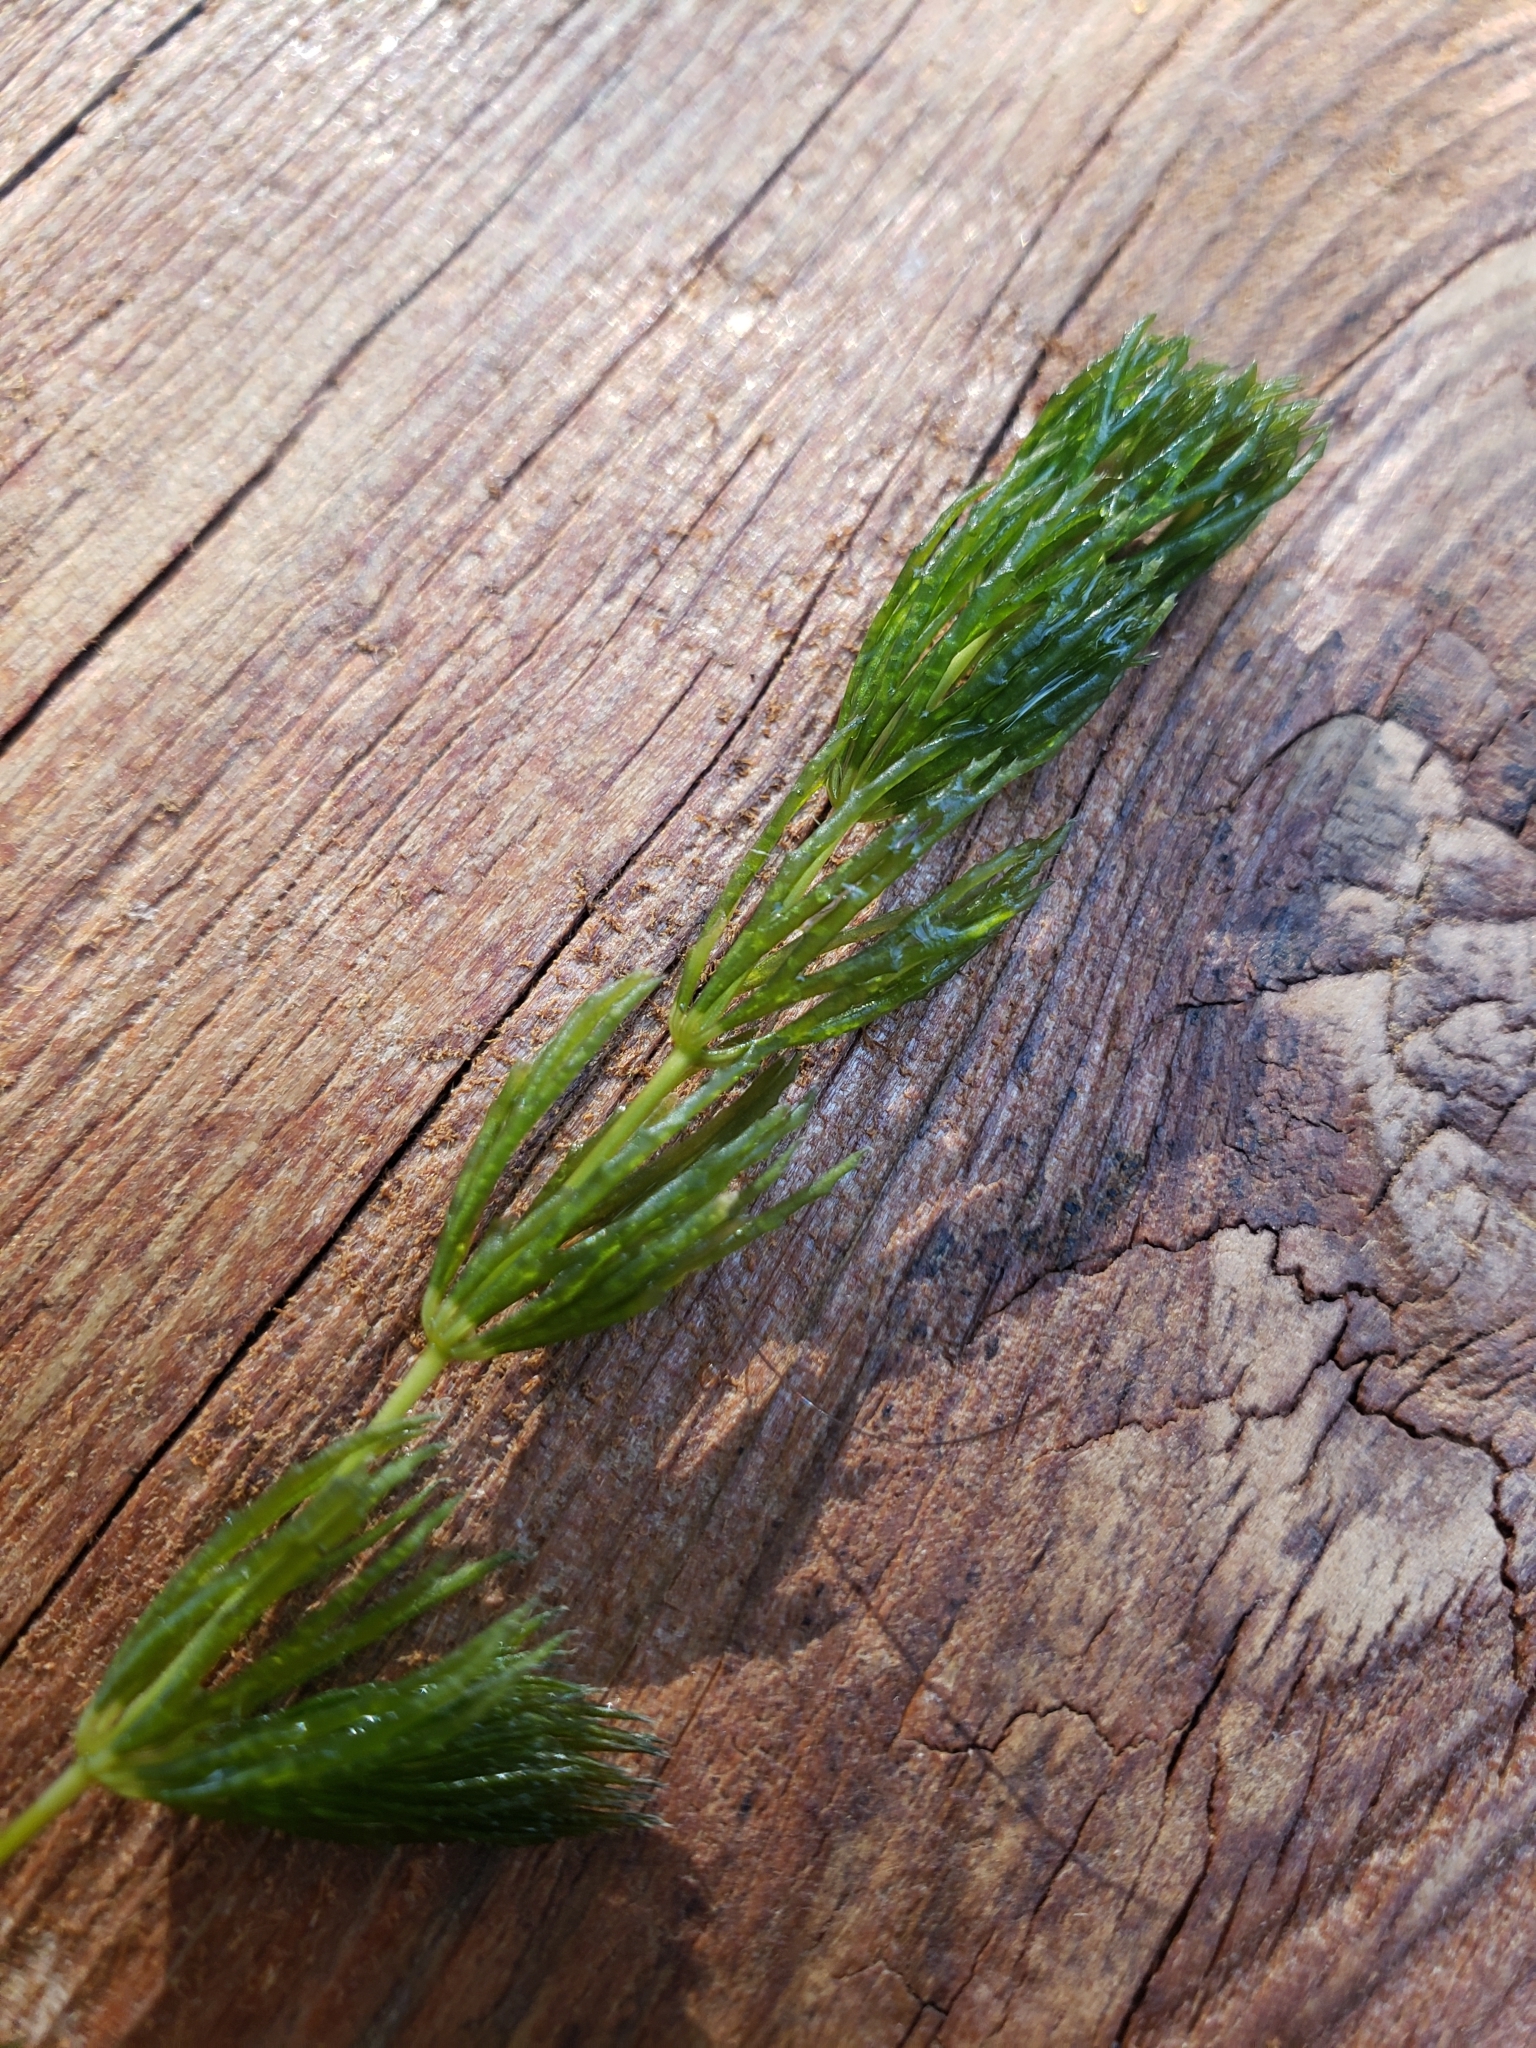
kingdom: Plantae
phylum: Tracheophyta
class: Magnoliopsida
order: Ceratophyllales
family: Ceratophyllaceae
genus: Ceratophyllum
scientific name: Ceratophyllum demersum
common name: Rigid hornwort
